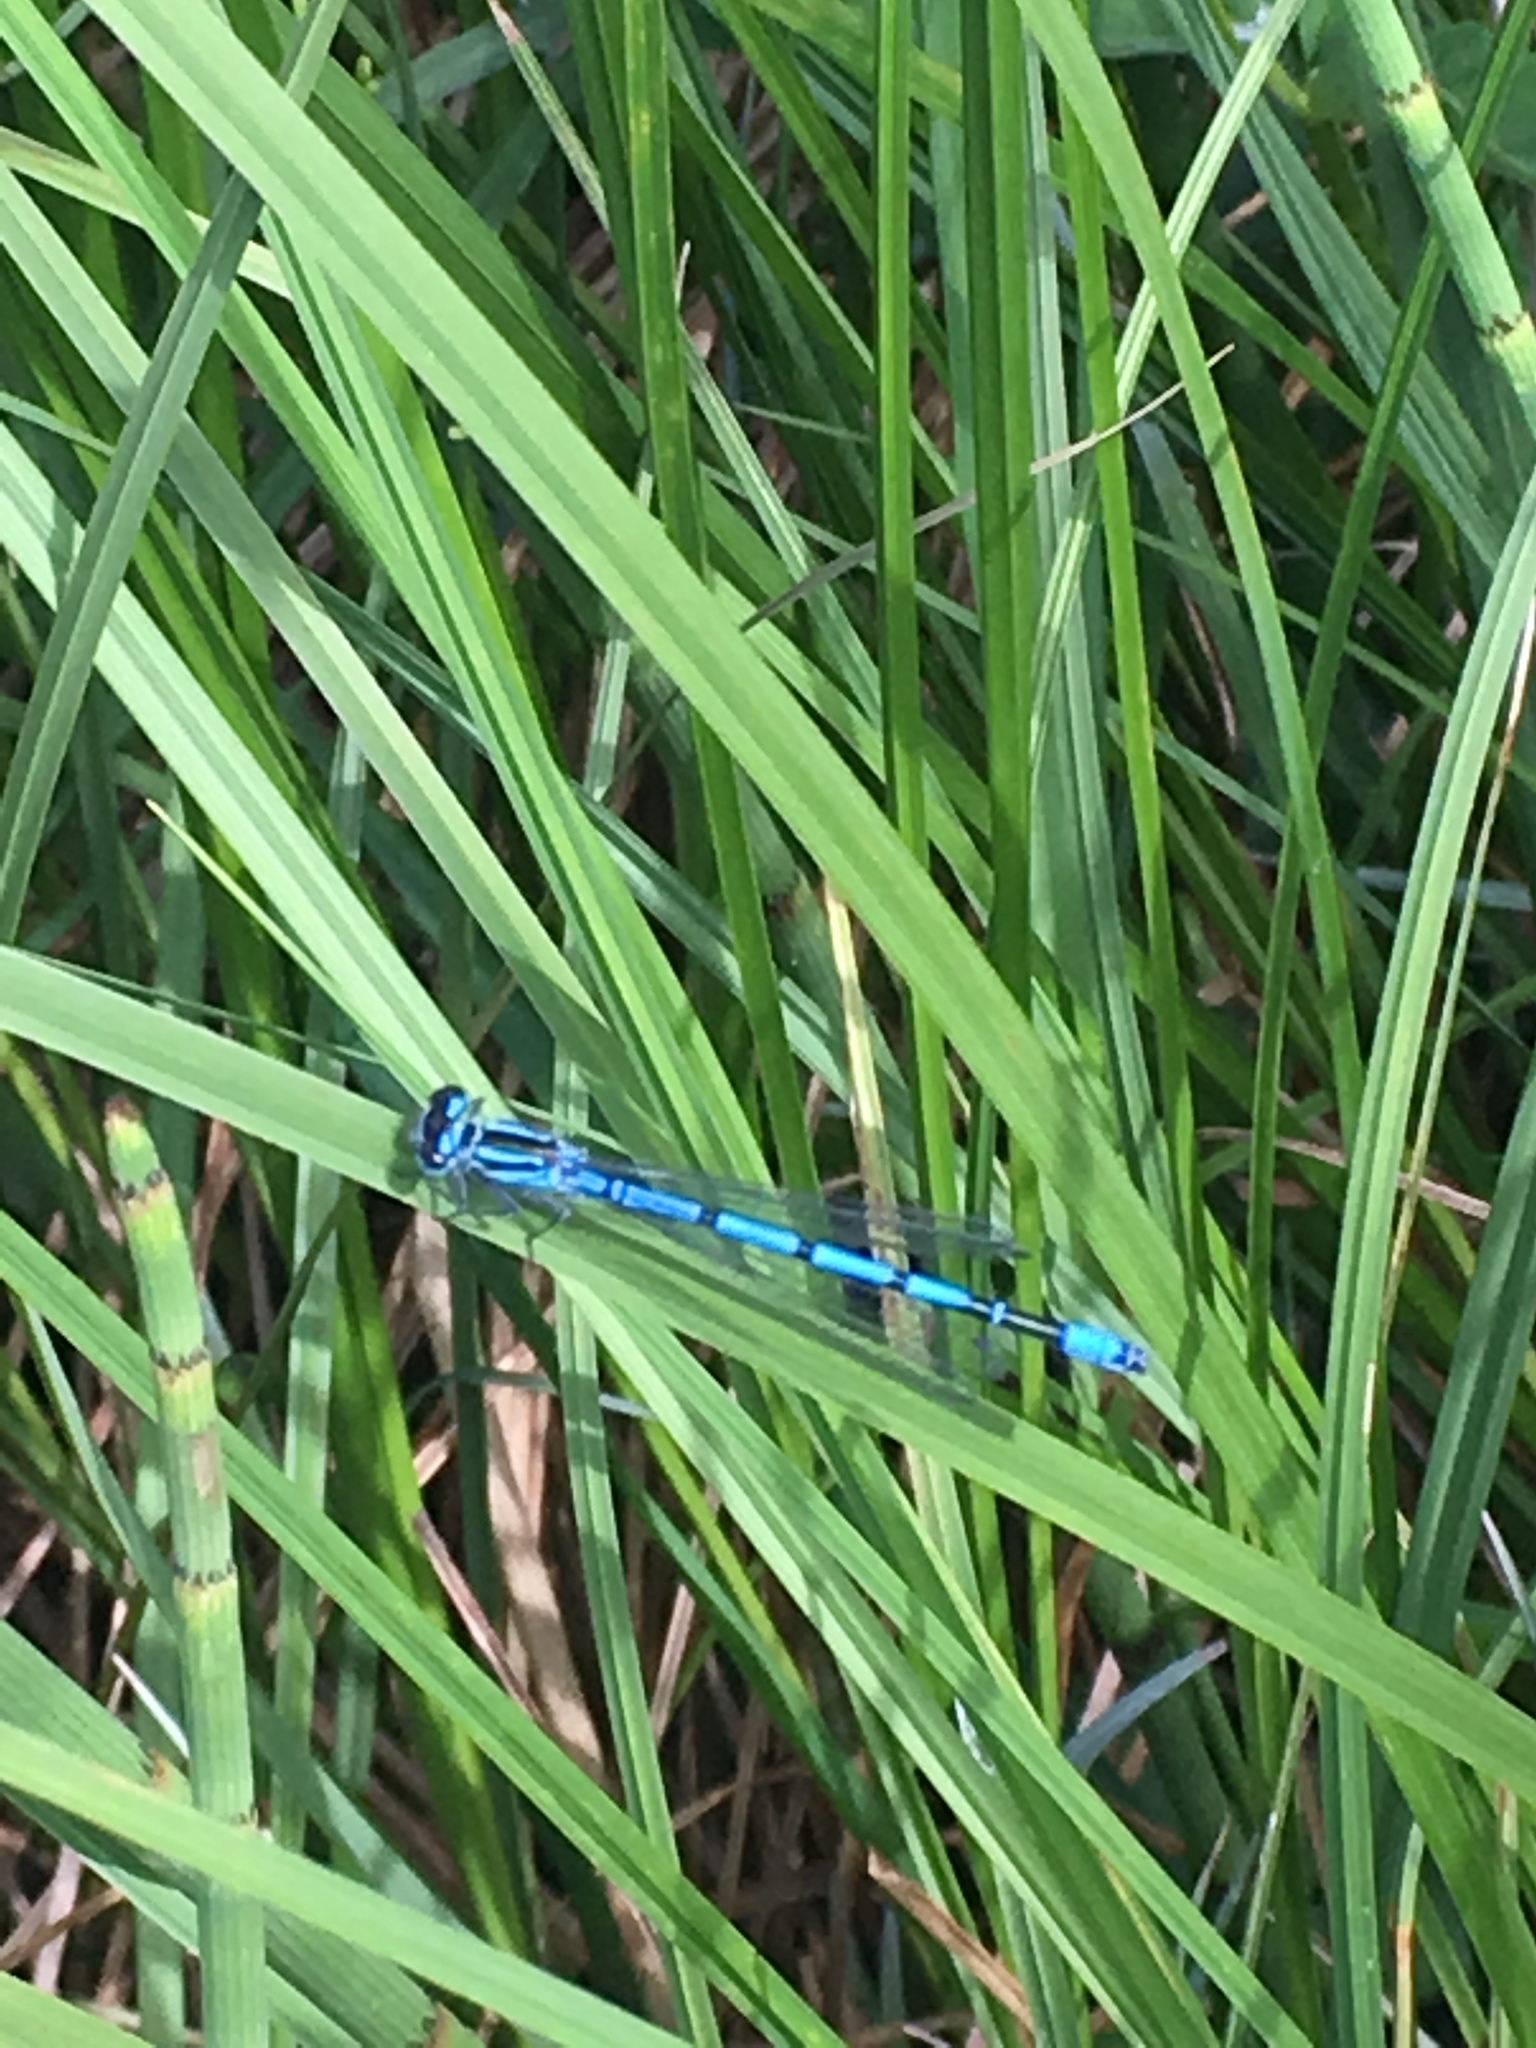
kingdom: Animalia
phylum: Arthropoda
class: Insecta
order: Odonata
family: Coenagrionidae
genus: Coenagrion
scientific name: Coenagrion puella
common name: Azure damselfly
